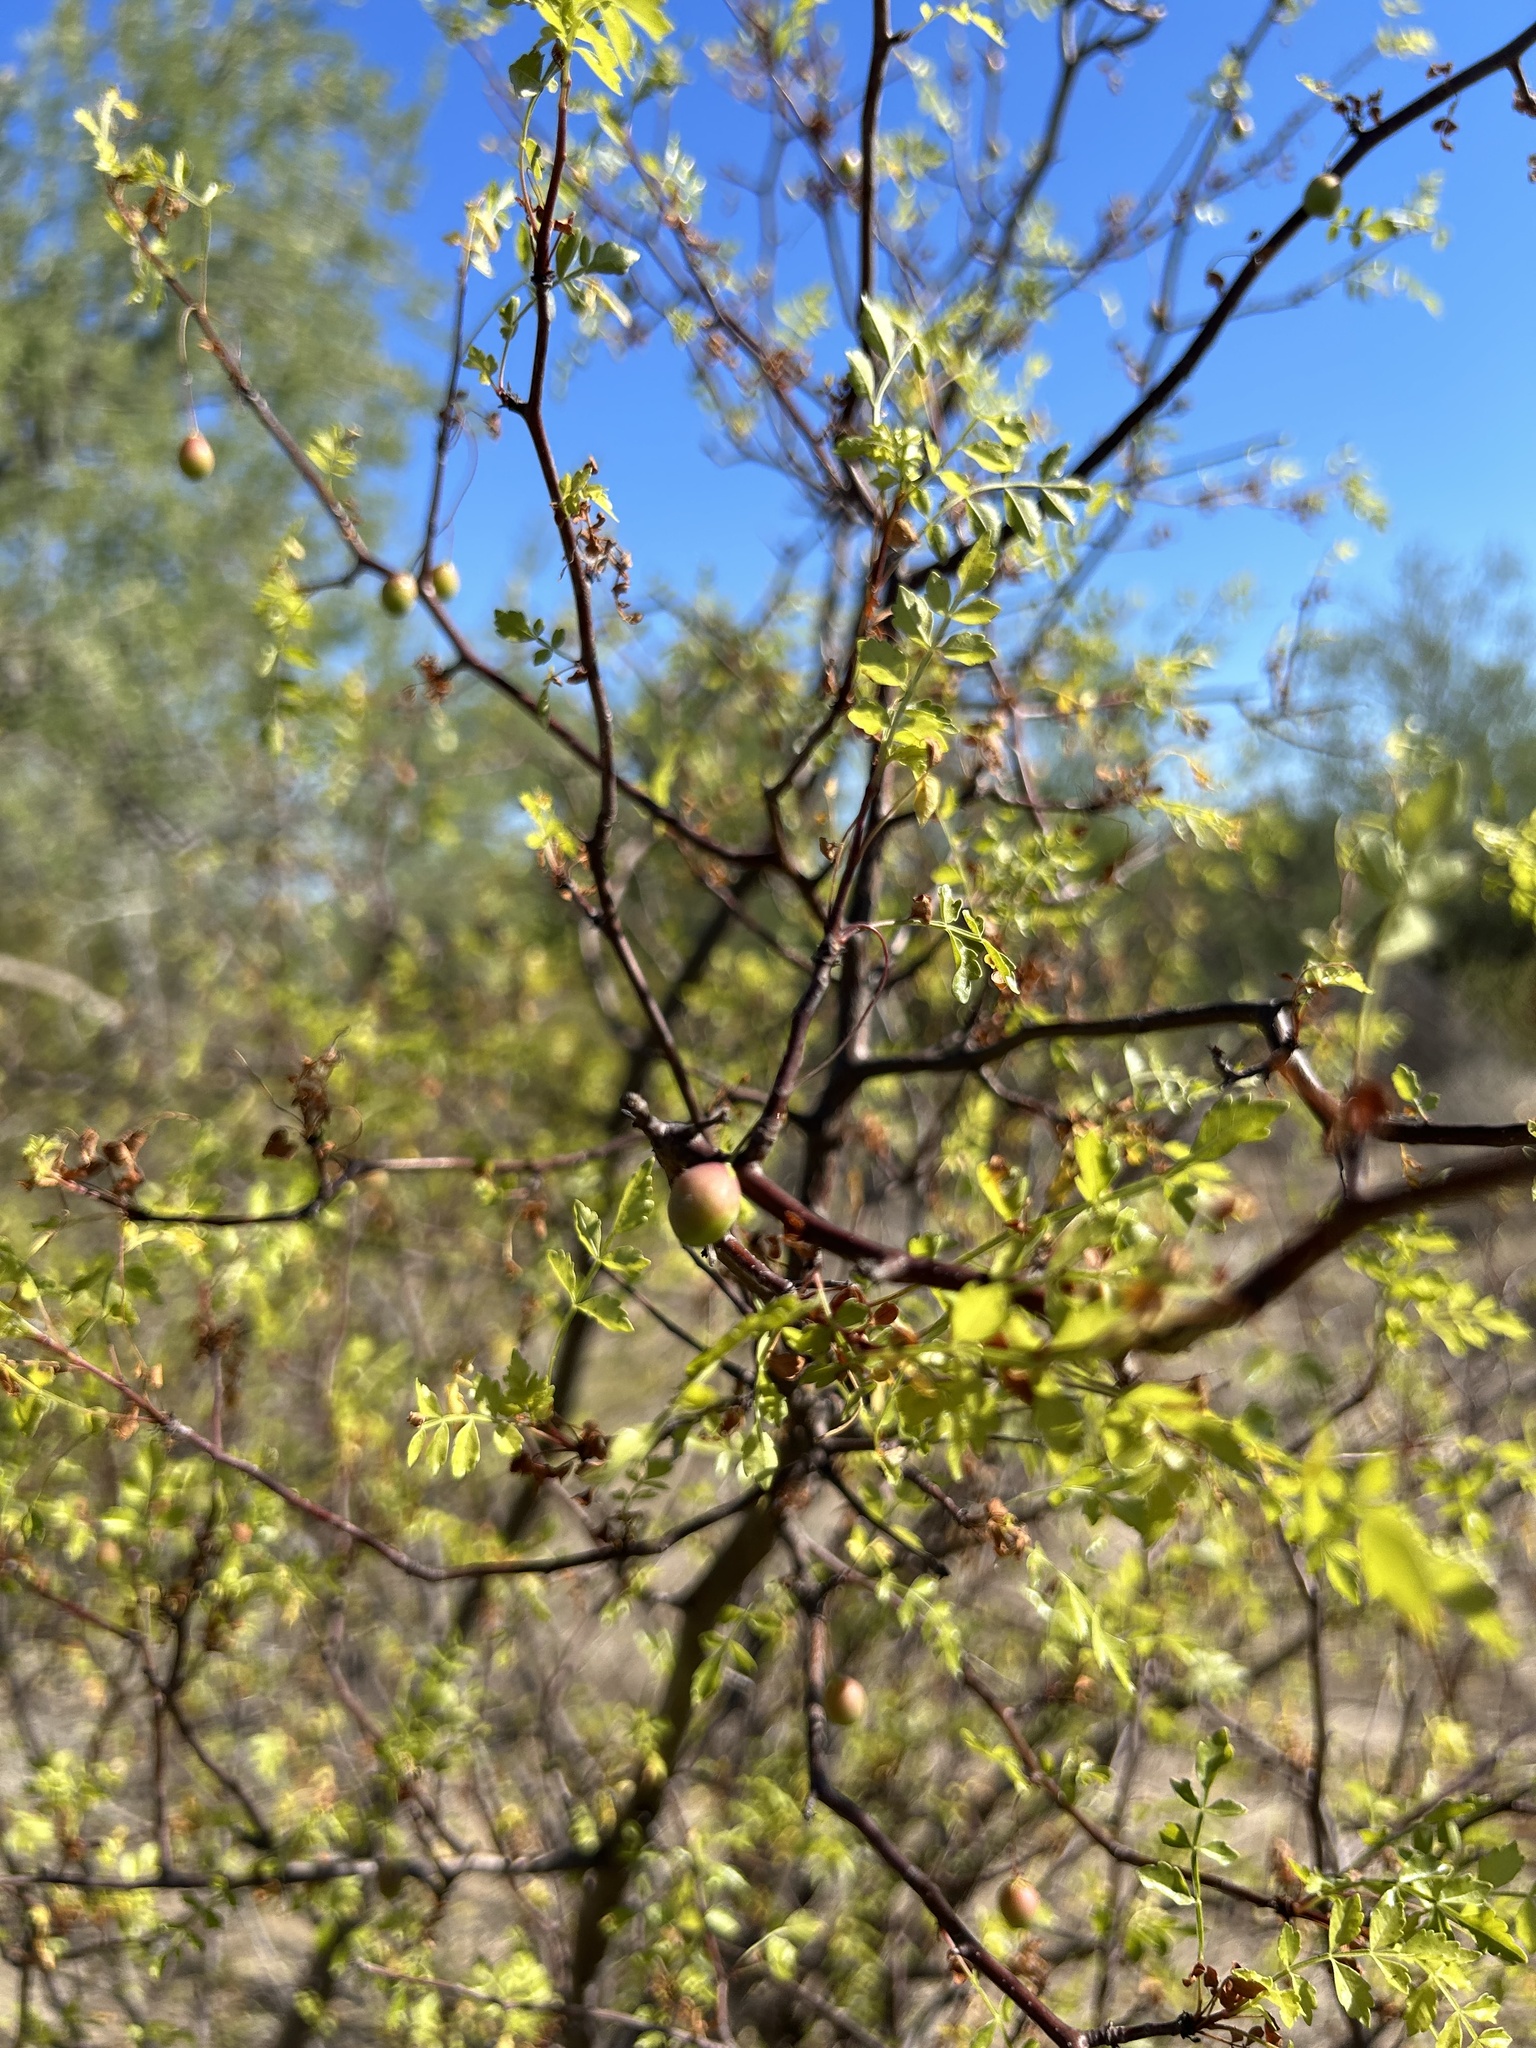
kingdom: Plantae
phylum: Tracheophyta
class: Magnoliopsida
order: Sapindales
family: Burseraceae
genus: Bursera
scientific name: Bursera laxiflora
